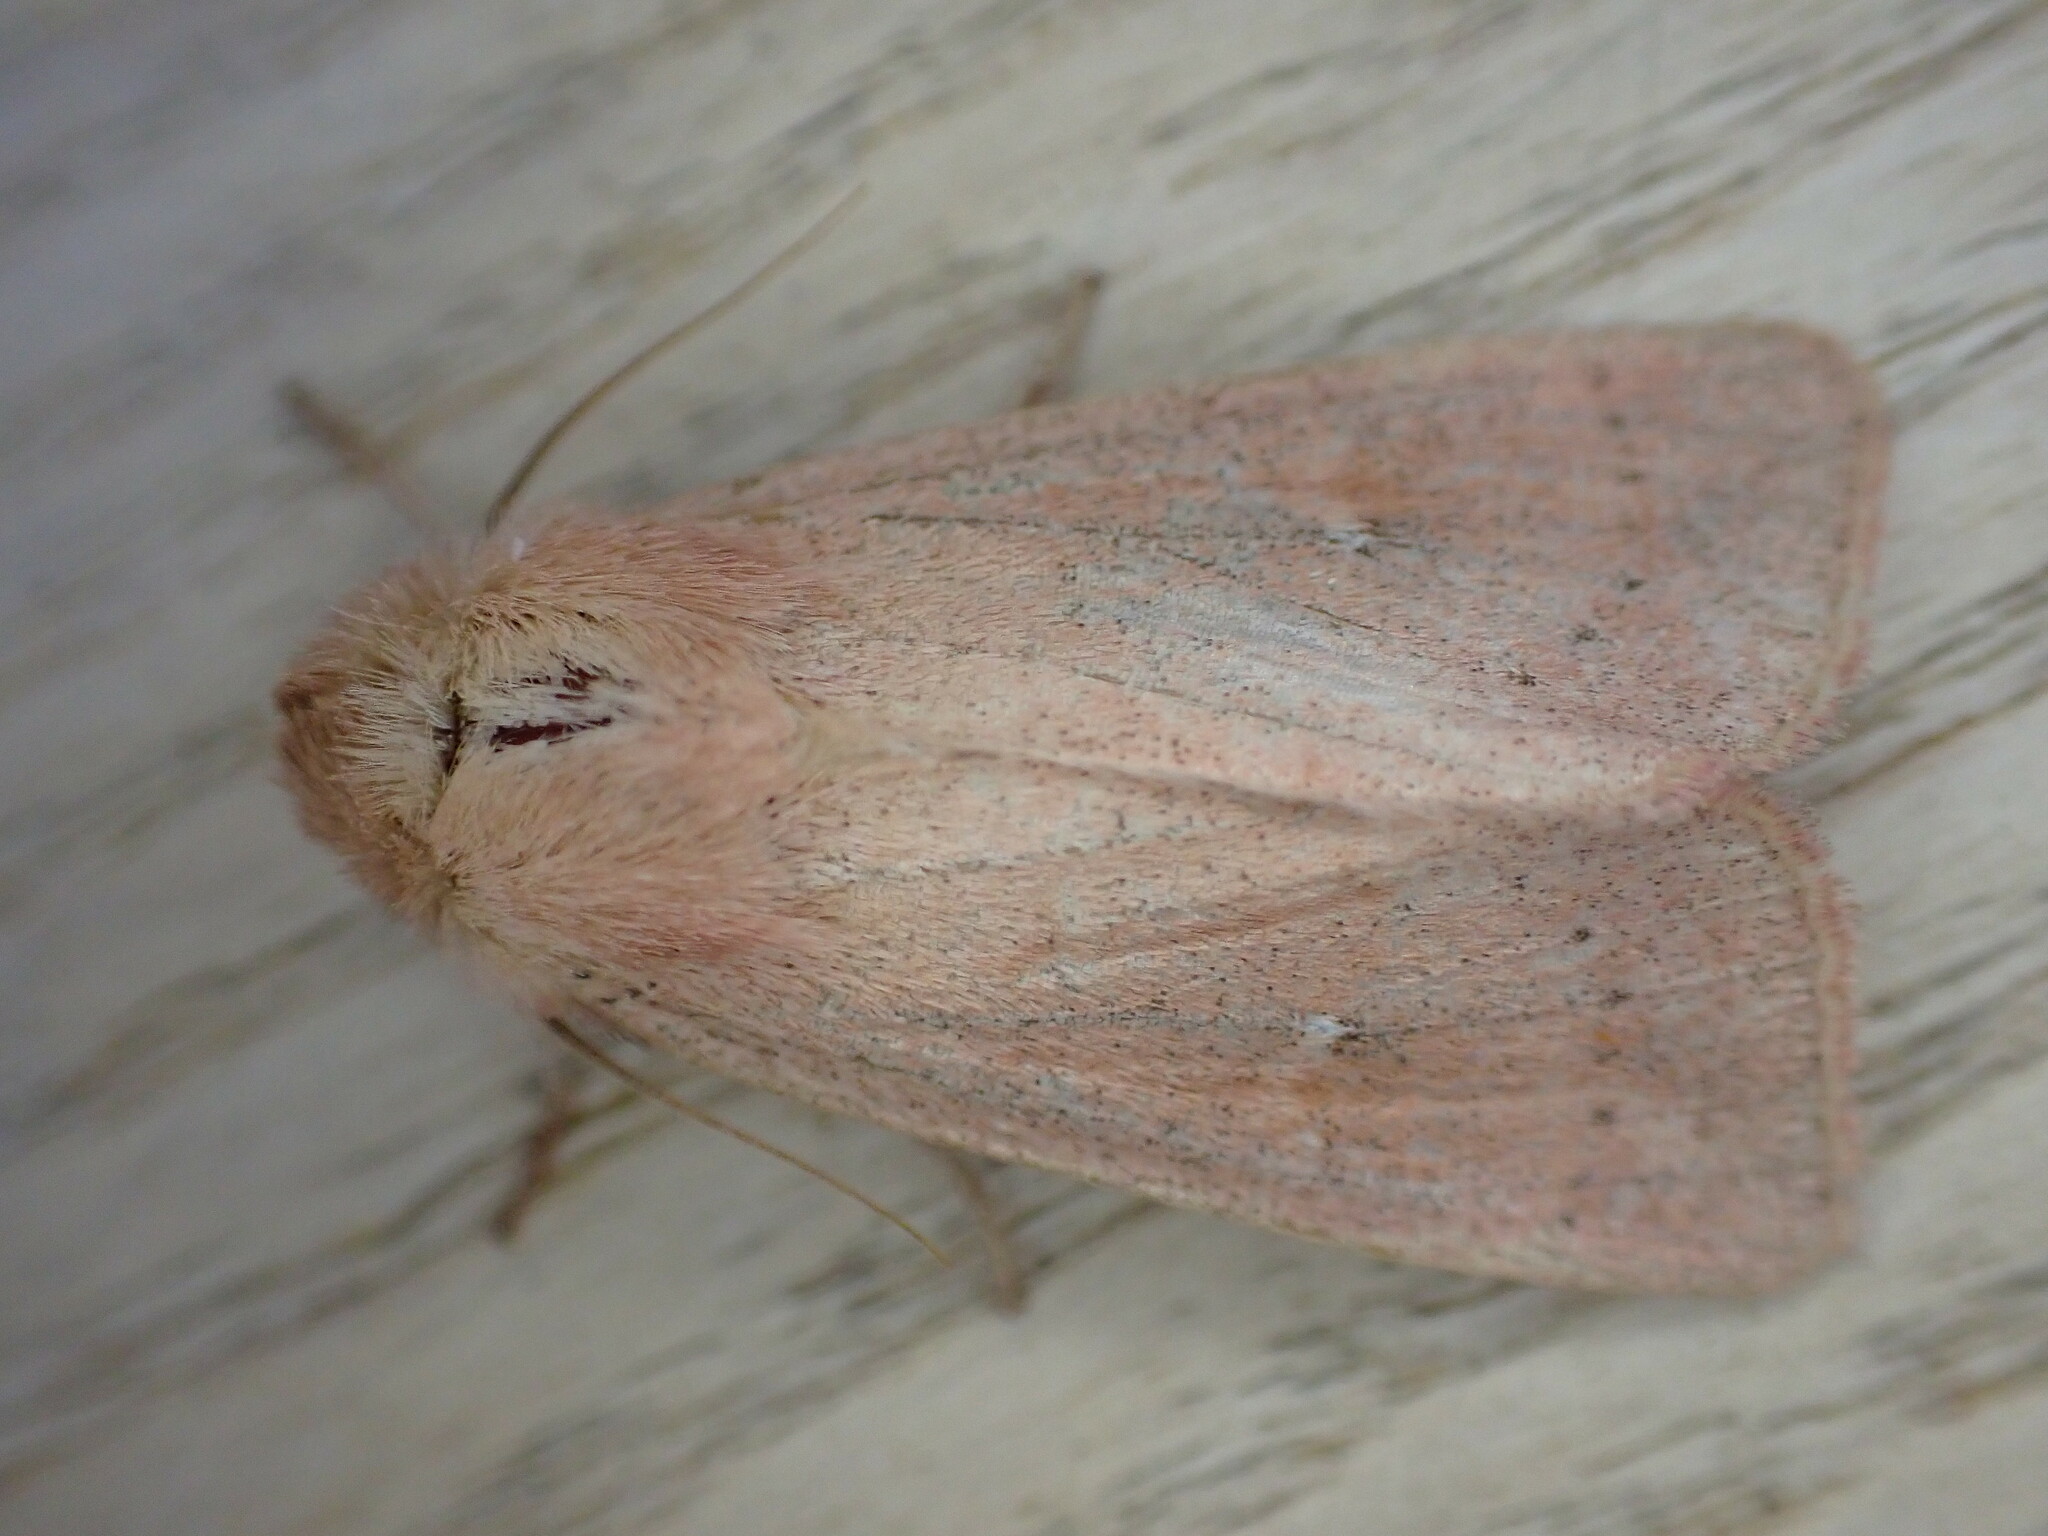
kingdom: Animalia
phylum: Arthropoda
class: Insecta
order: Lepidoptera
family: Noctuidae
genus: Mythimna
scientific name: Mythimna ferrago
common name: Clay
